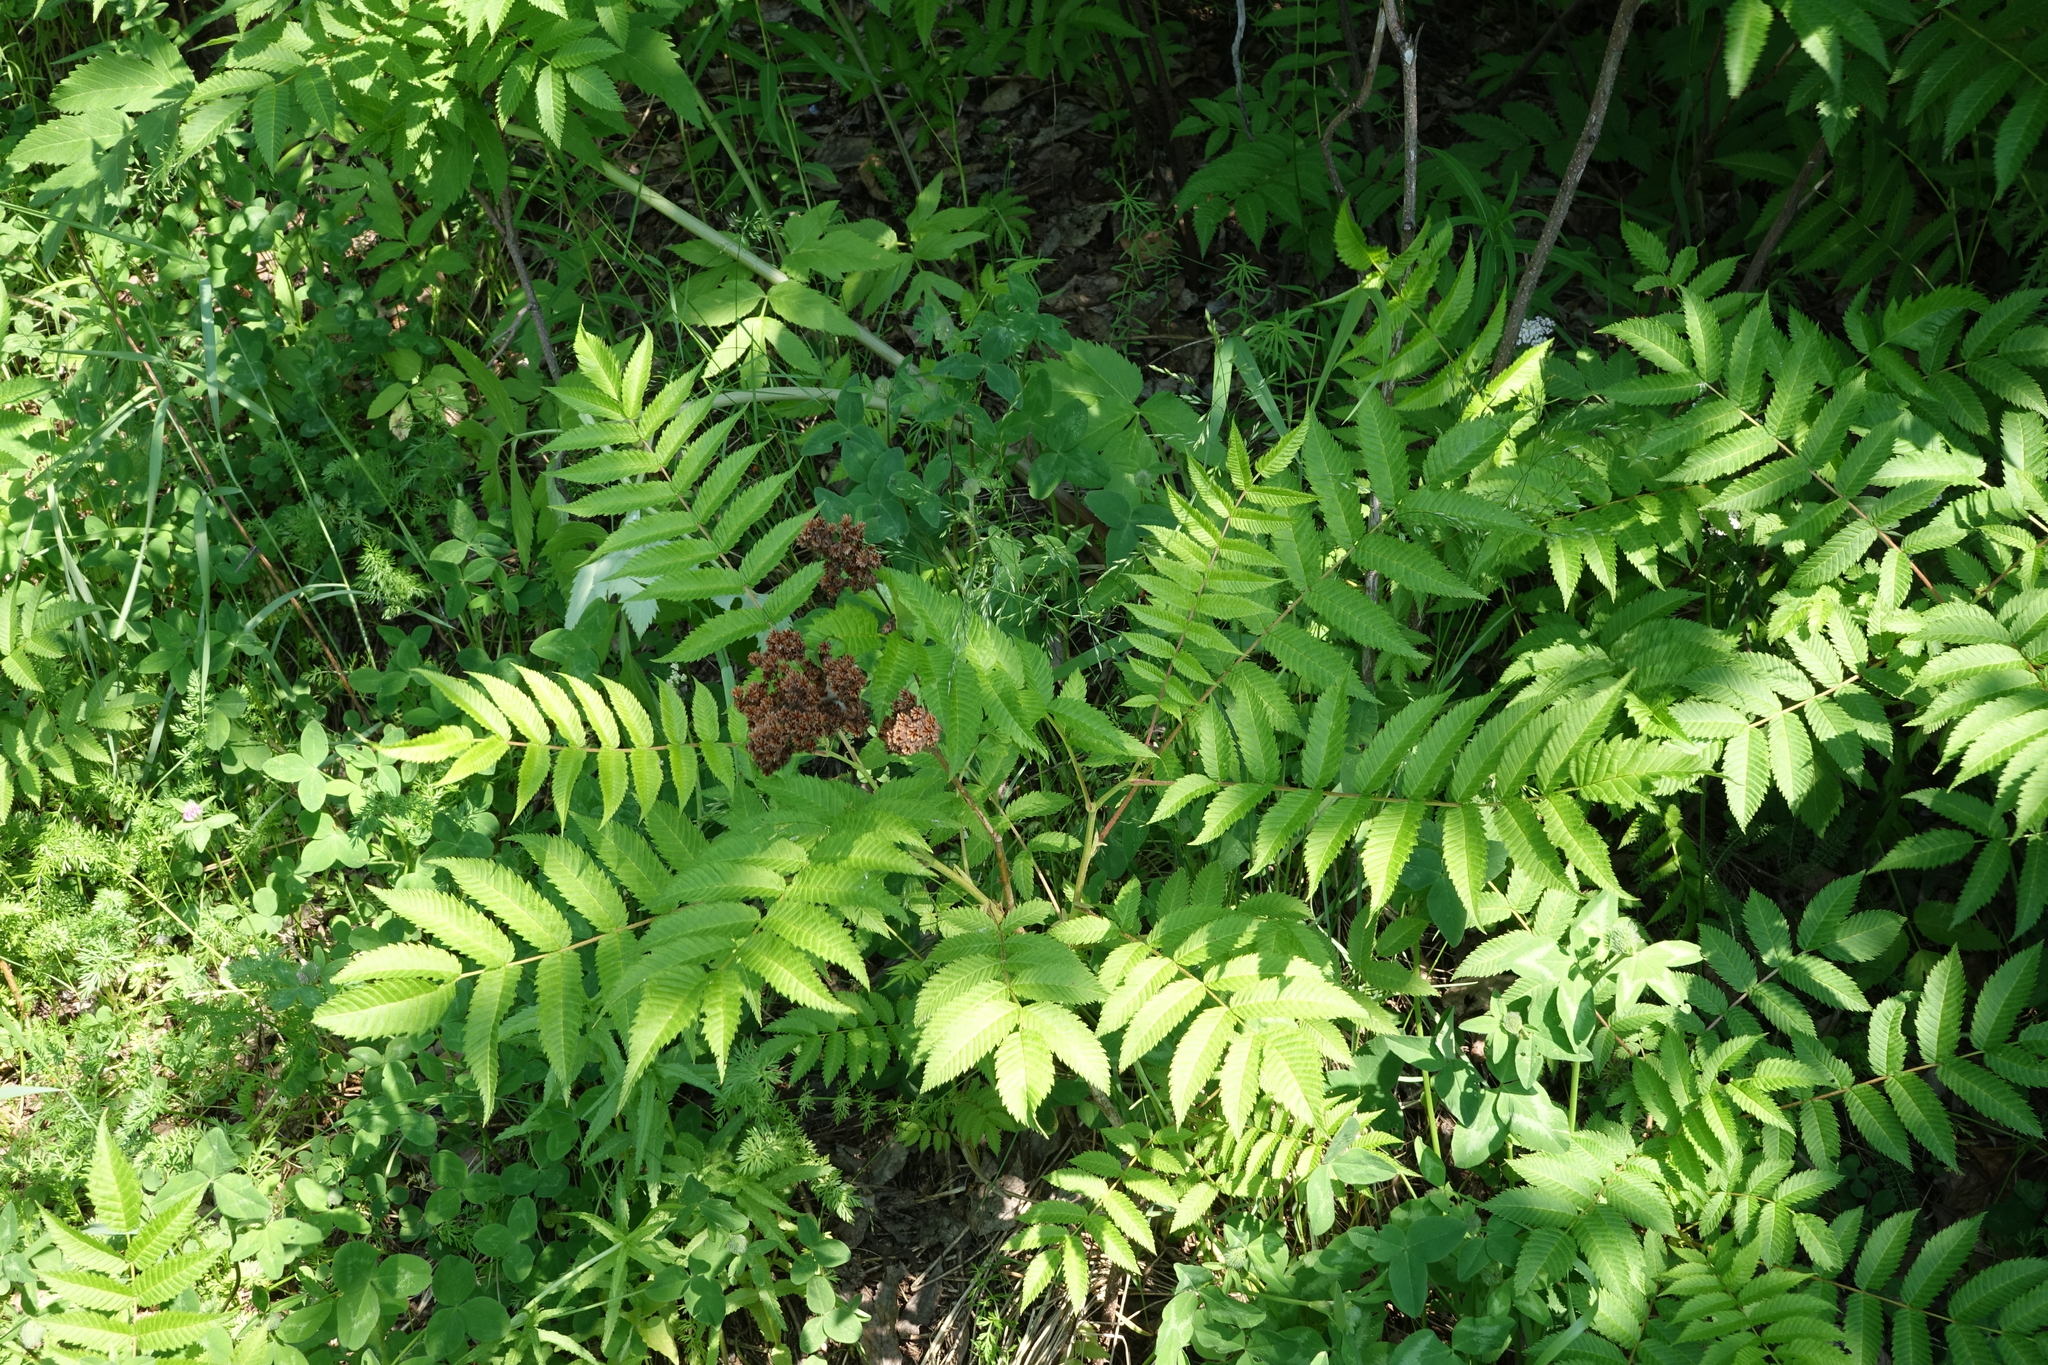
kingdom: Plantae
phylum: Tracheophyta
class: Magnoliopsida
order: Rosales
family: Rosaceae
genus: Sorbaria
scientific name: Sorbaria sorbifolia
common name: False spiraea
